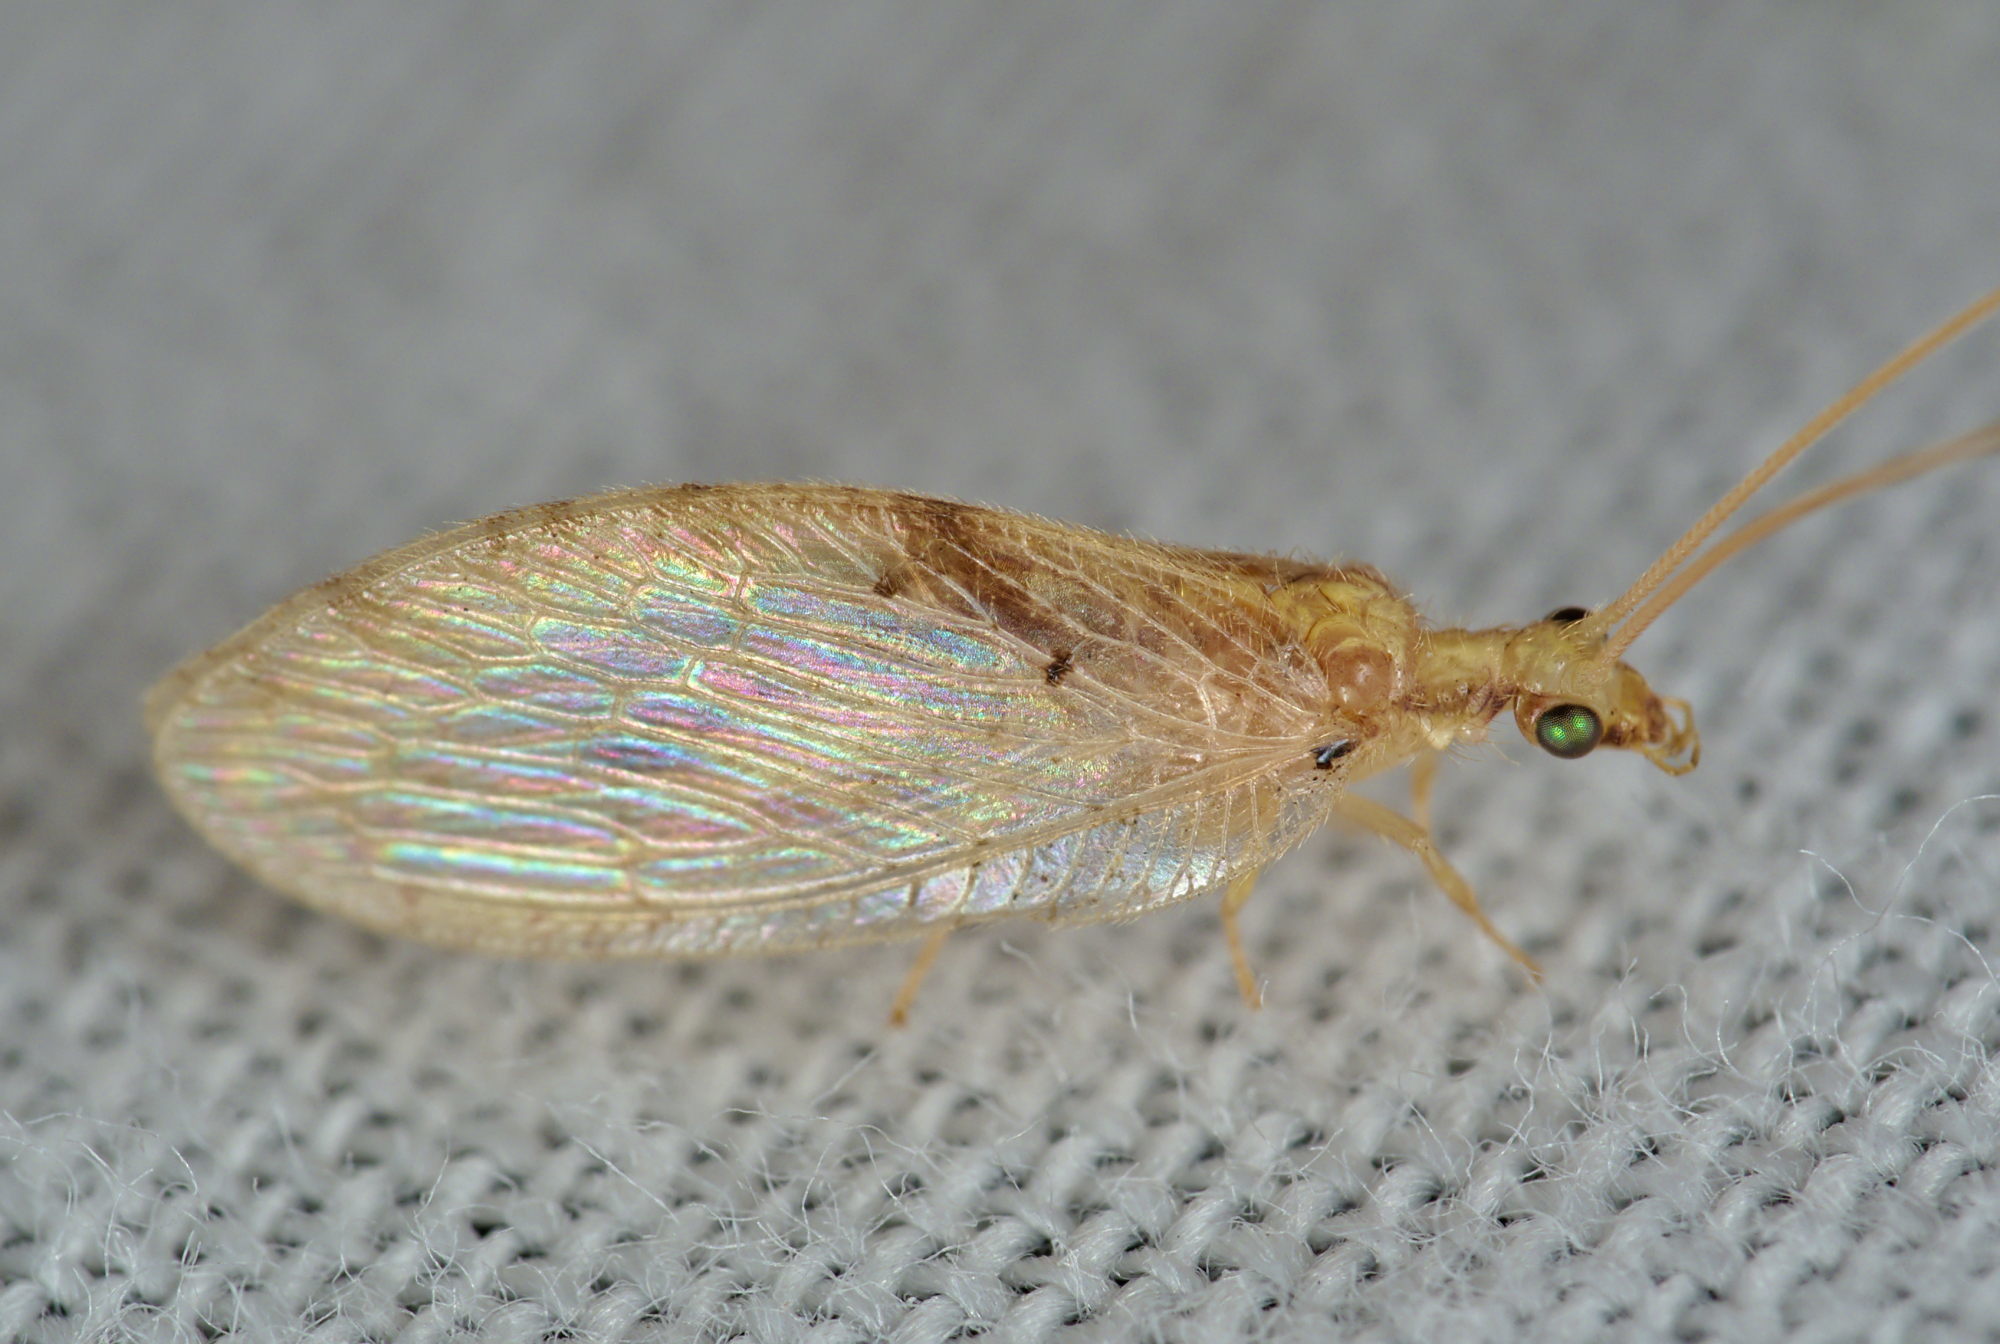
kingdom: Animalia
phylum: Arthropoda
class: Insecta
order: Neuroptera
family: Hemerobiidae
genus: Hemerobius
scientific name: Hemerobius lutescens
